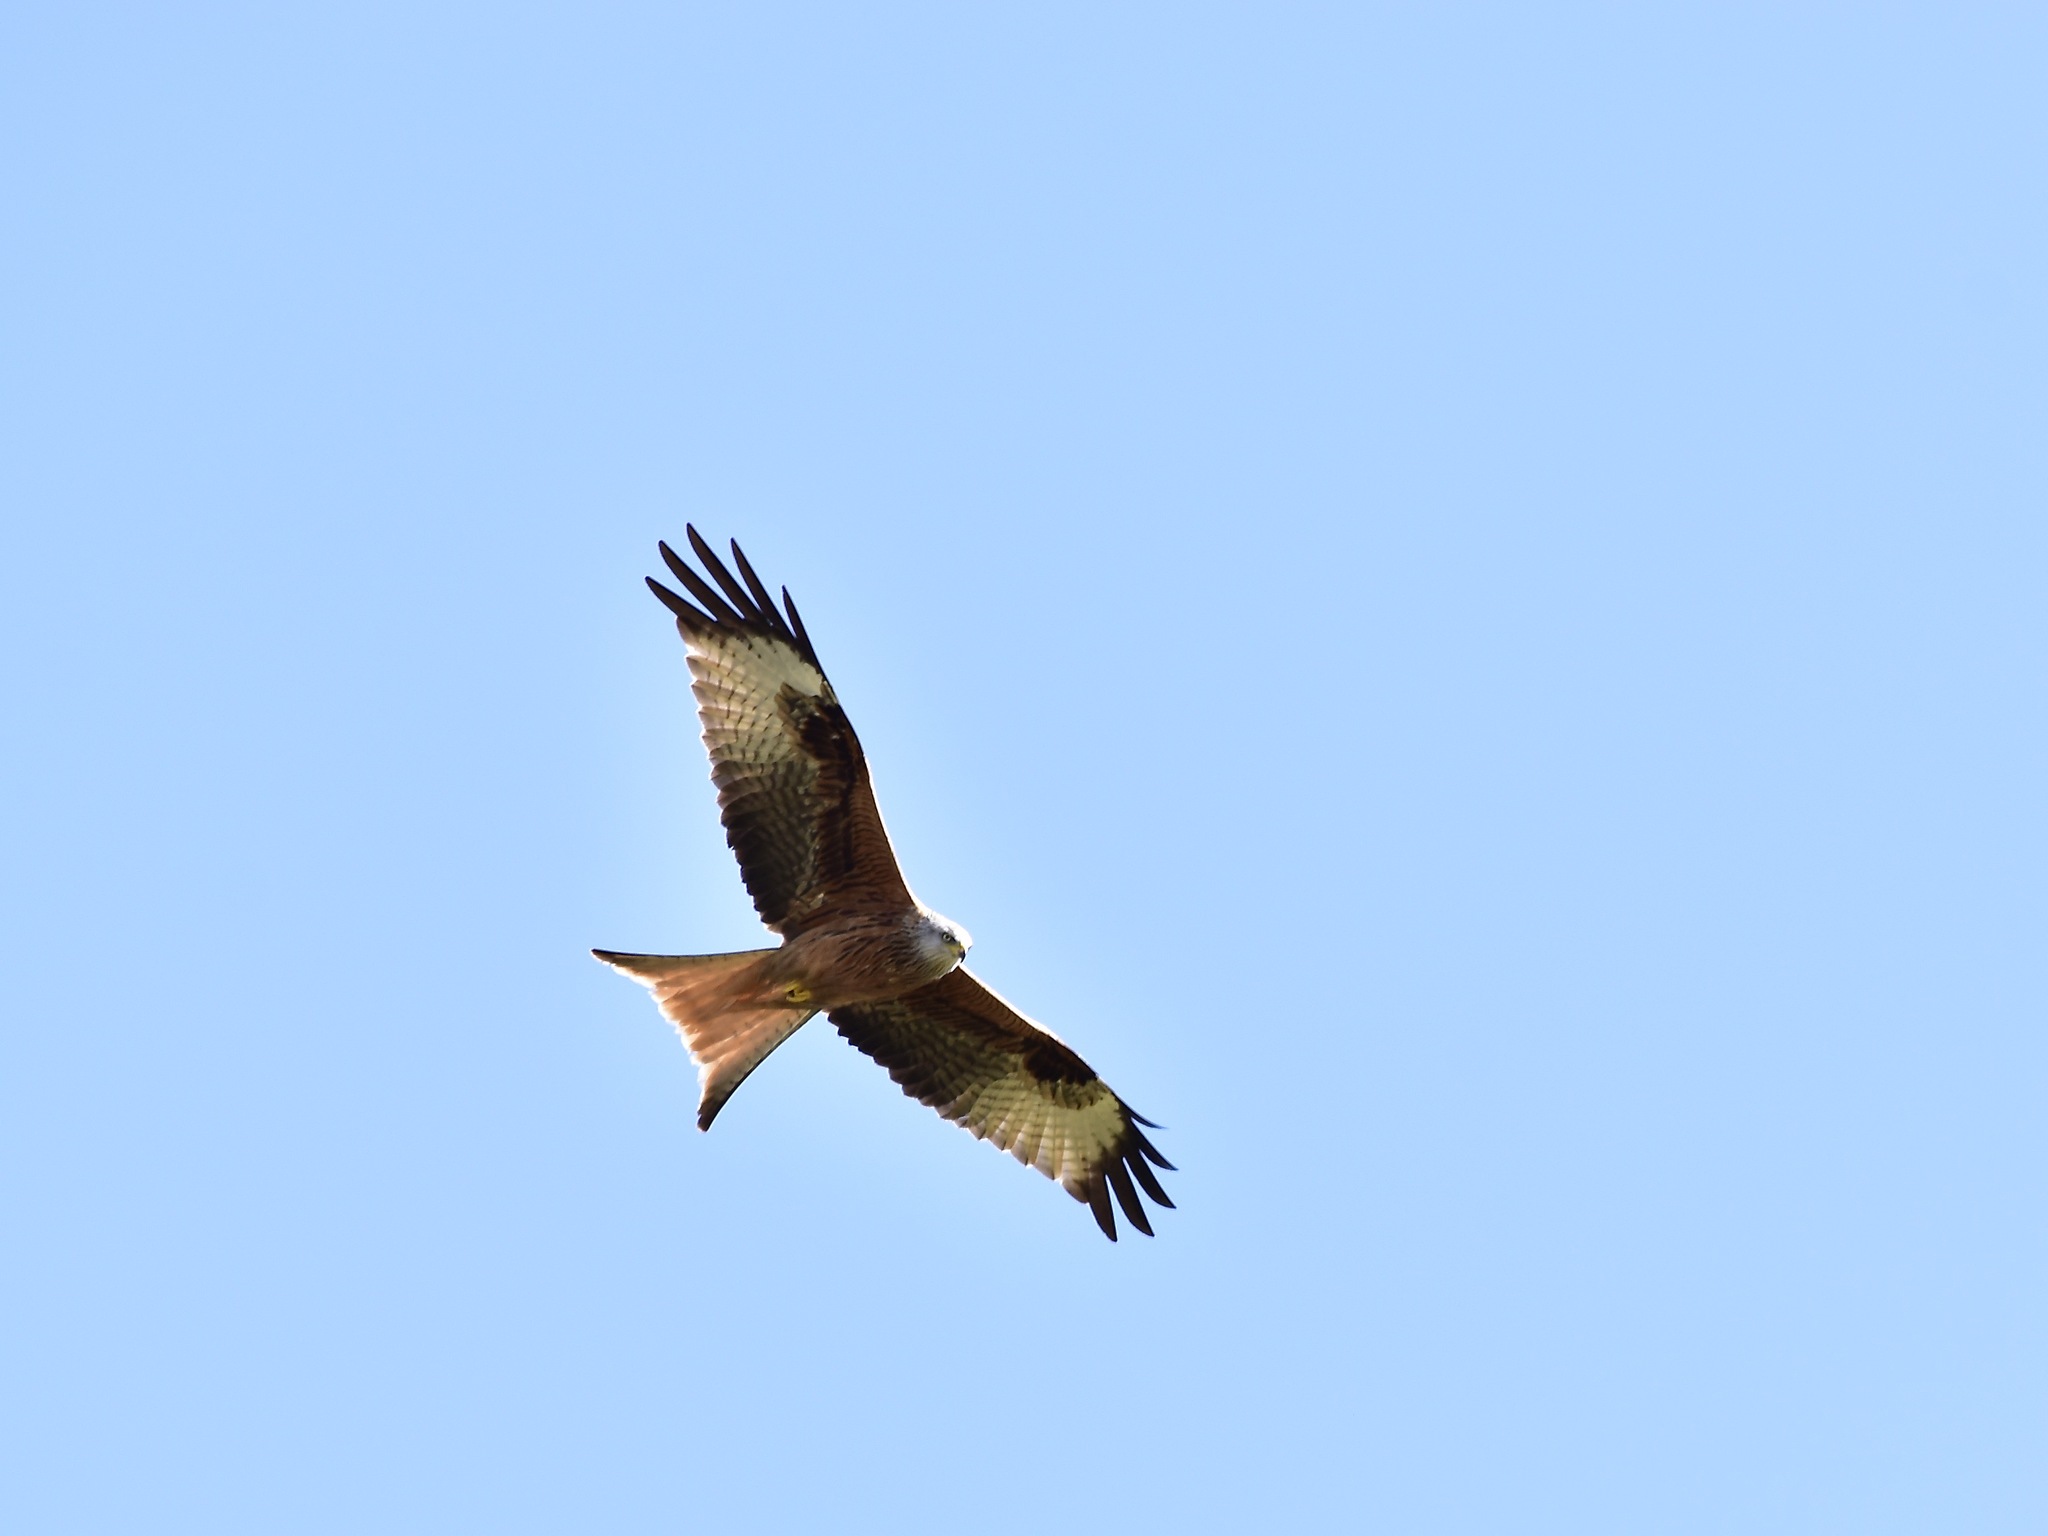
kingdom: Animalia
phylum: Chordata
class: Aves
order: Accipitriformes
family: Accipitridae
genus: Milvus
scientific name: Milvus milvus
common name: Red kite
